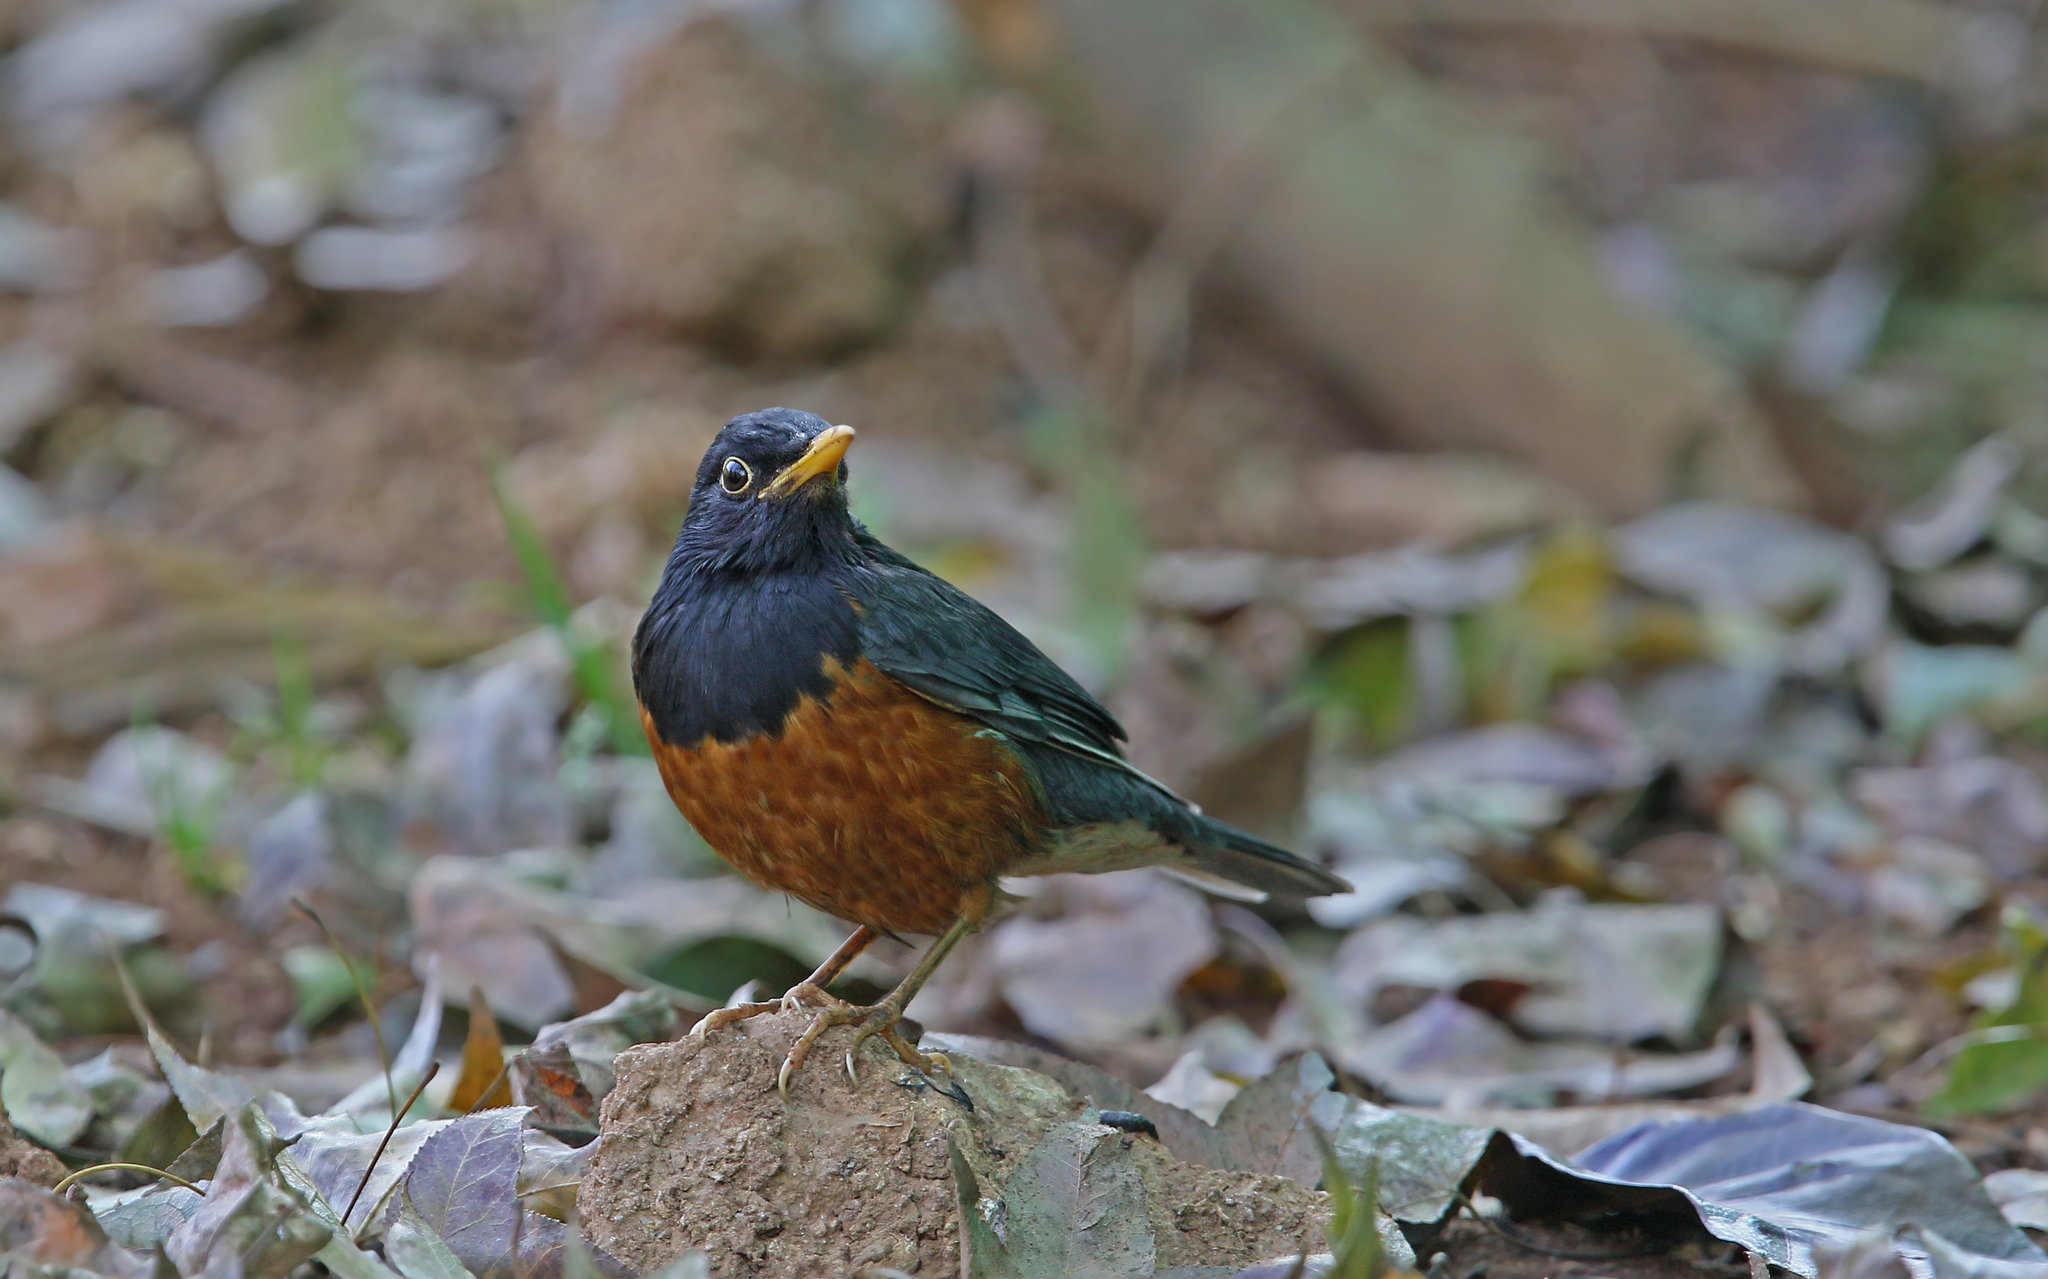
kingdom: Animalia
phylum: Chordata
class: Aves
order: Passeriformes
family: Turdidae
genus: Turdus
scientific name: Turdus dissimilis
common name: Black-breasted thrush
